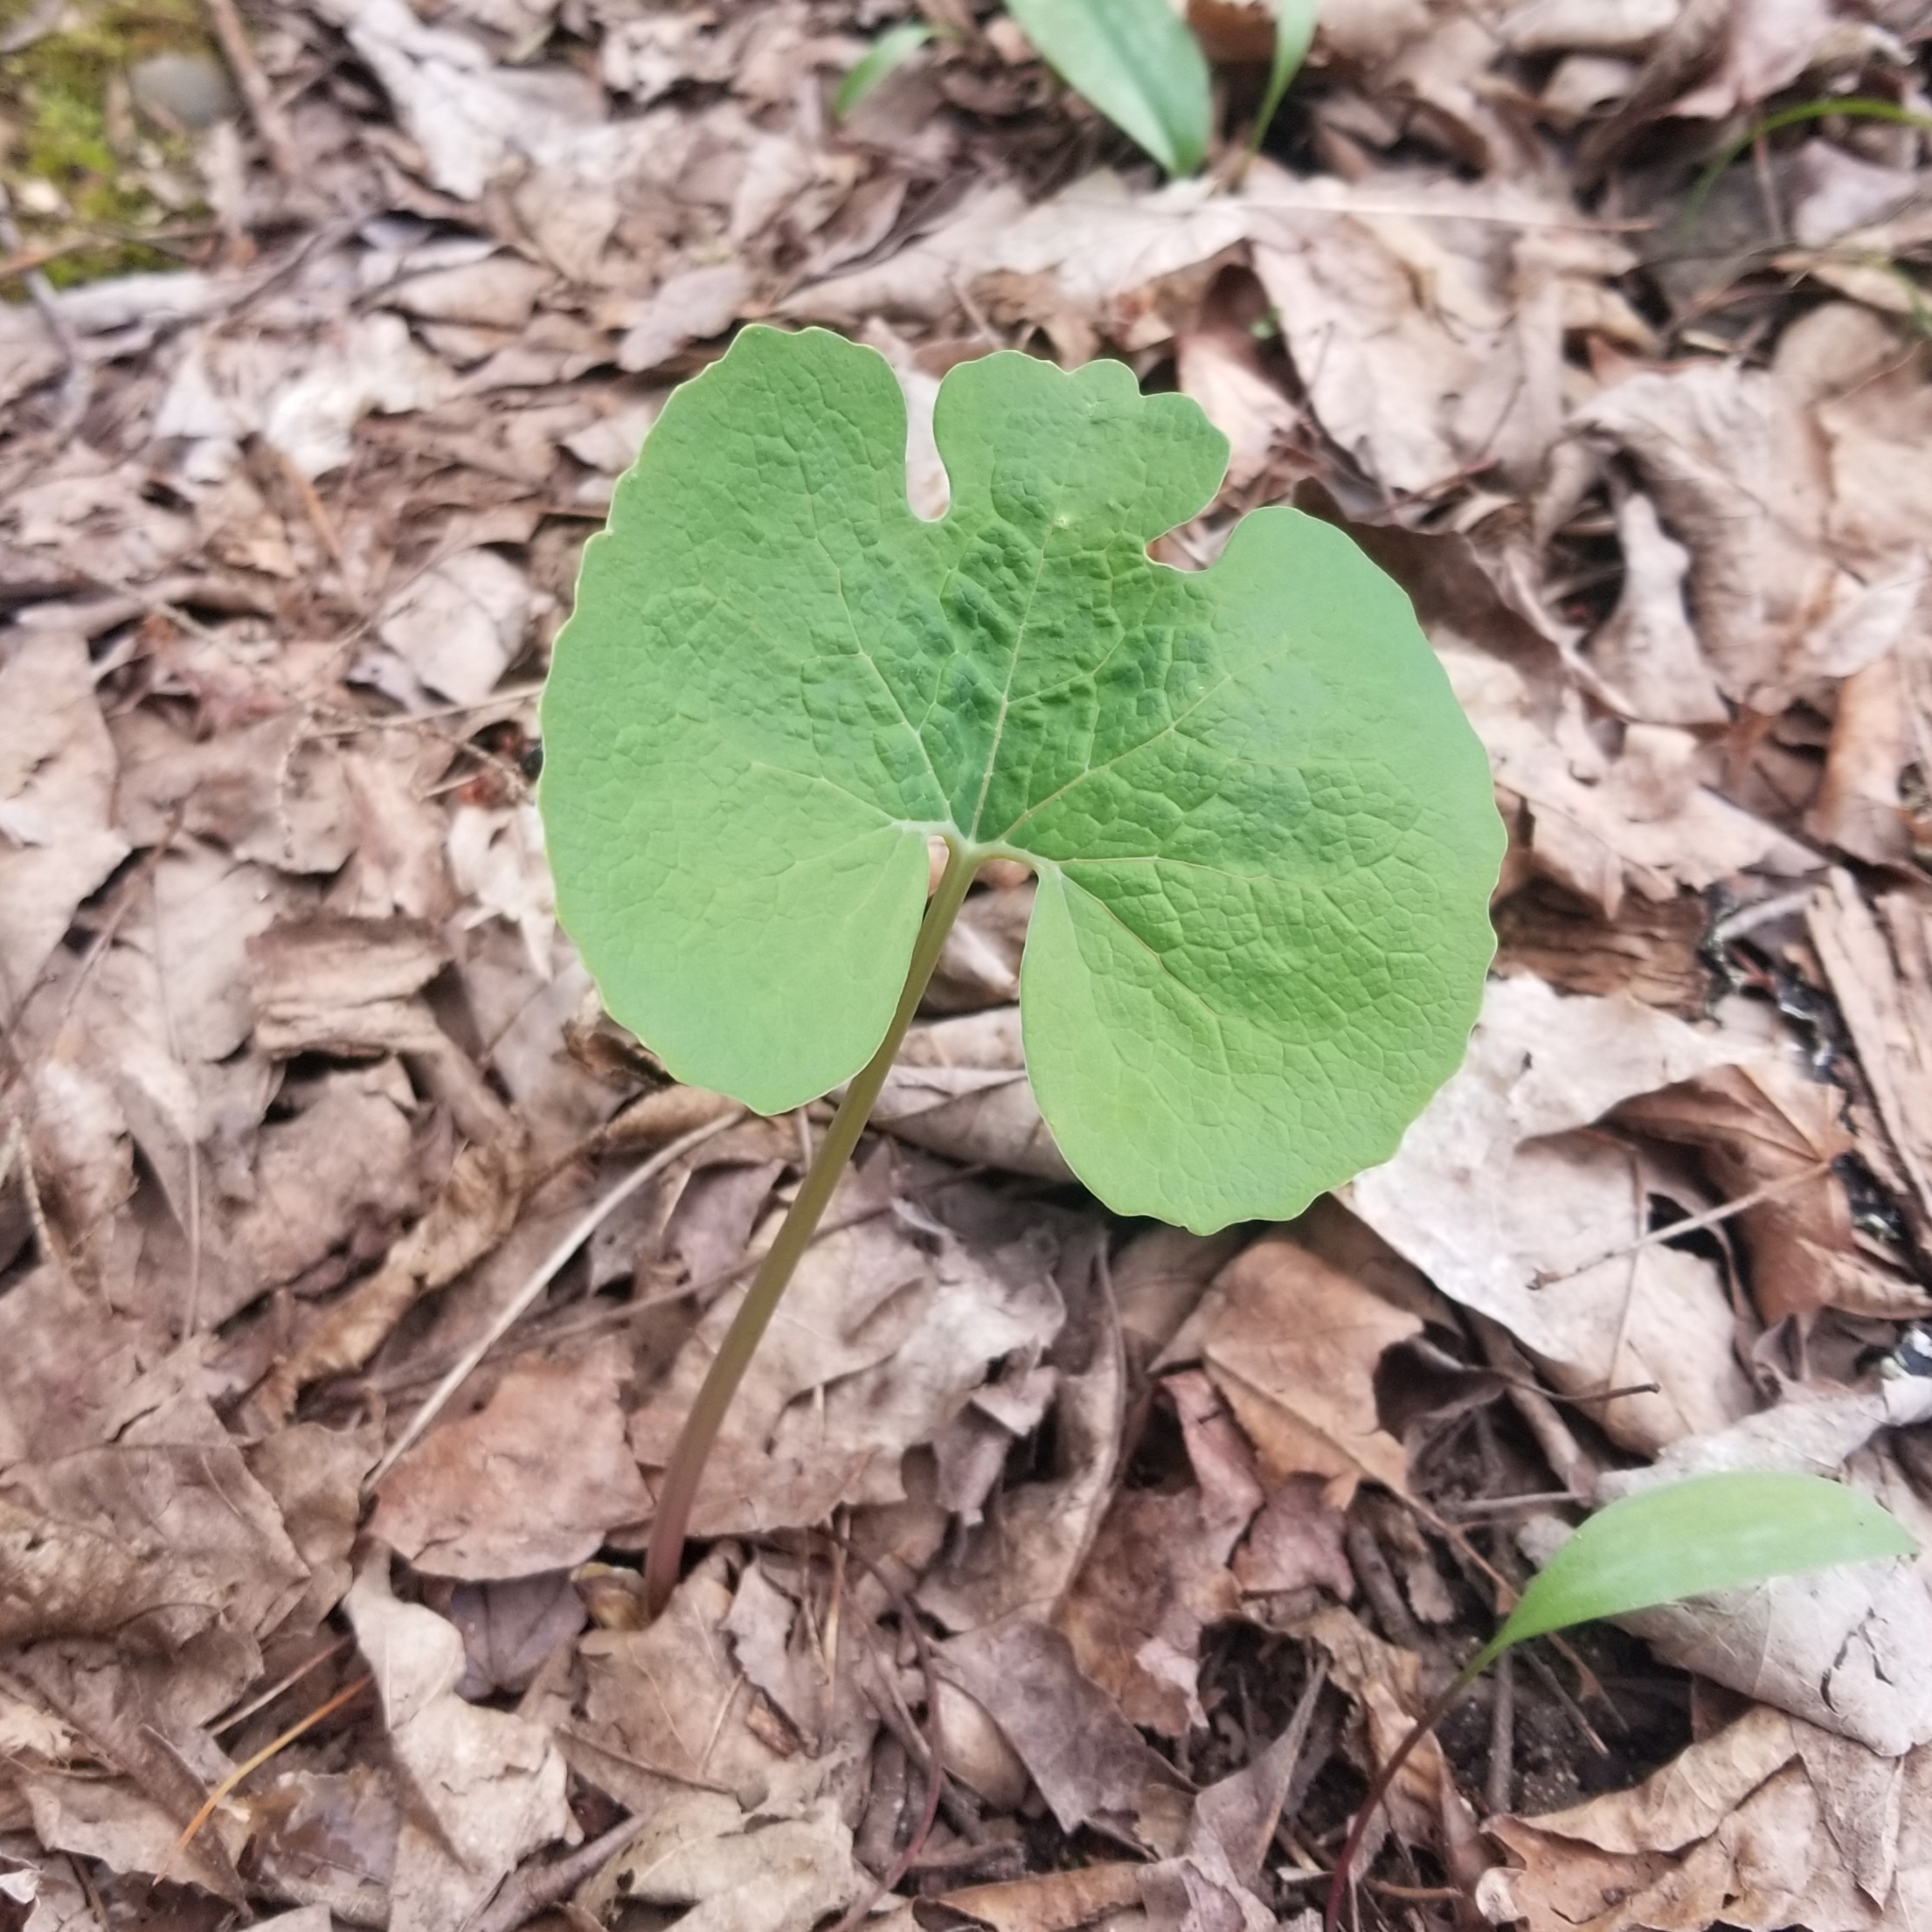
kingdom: Plantae
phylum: Tracheophyta
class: Magnoliopsida
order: Ranunculales
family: Papaveraceae
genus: Sanguinaria
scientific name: Sanguinaria canadensis
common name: Bloodroot
